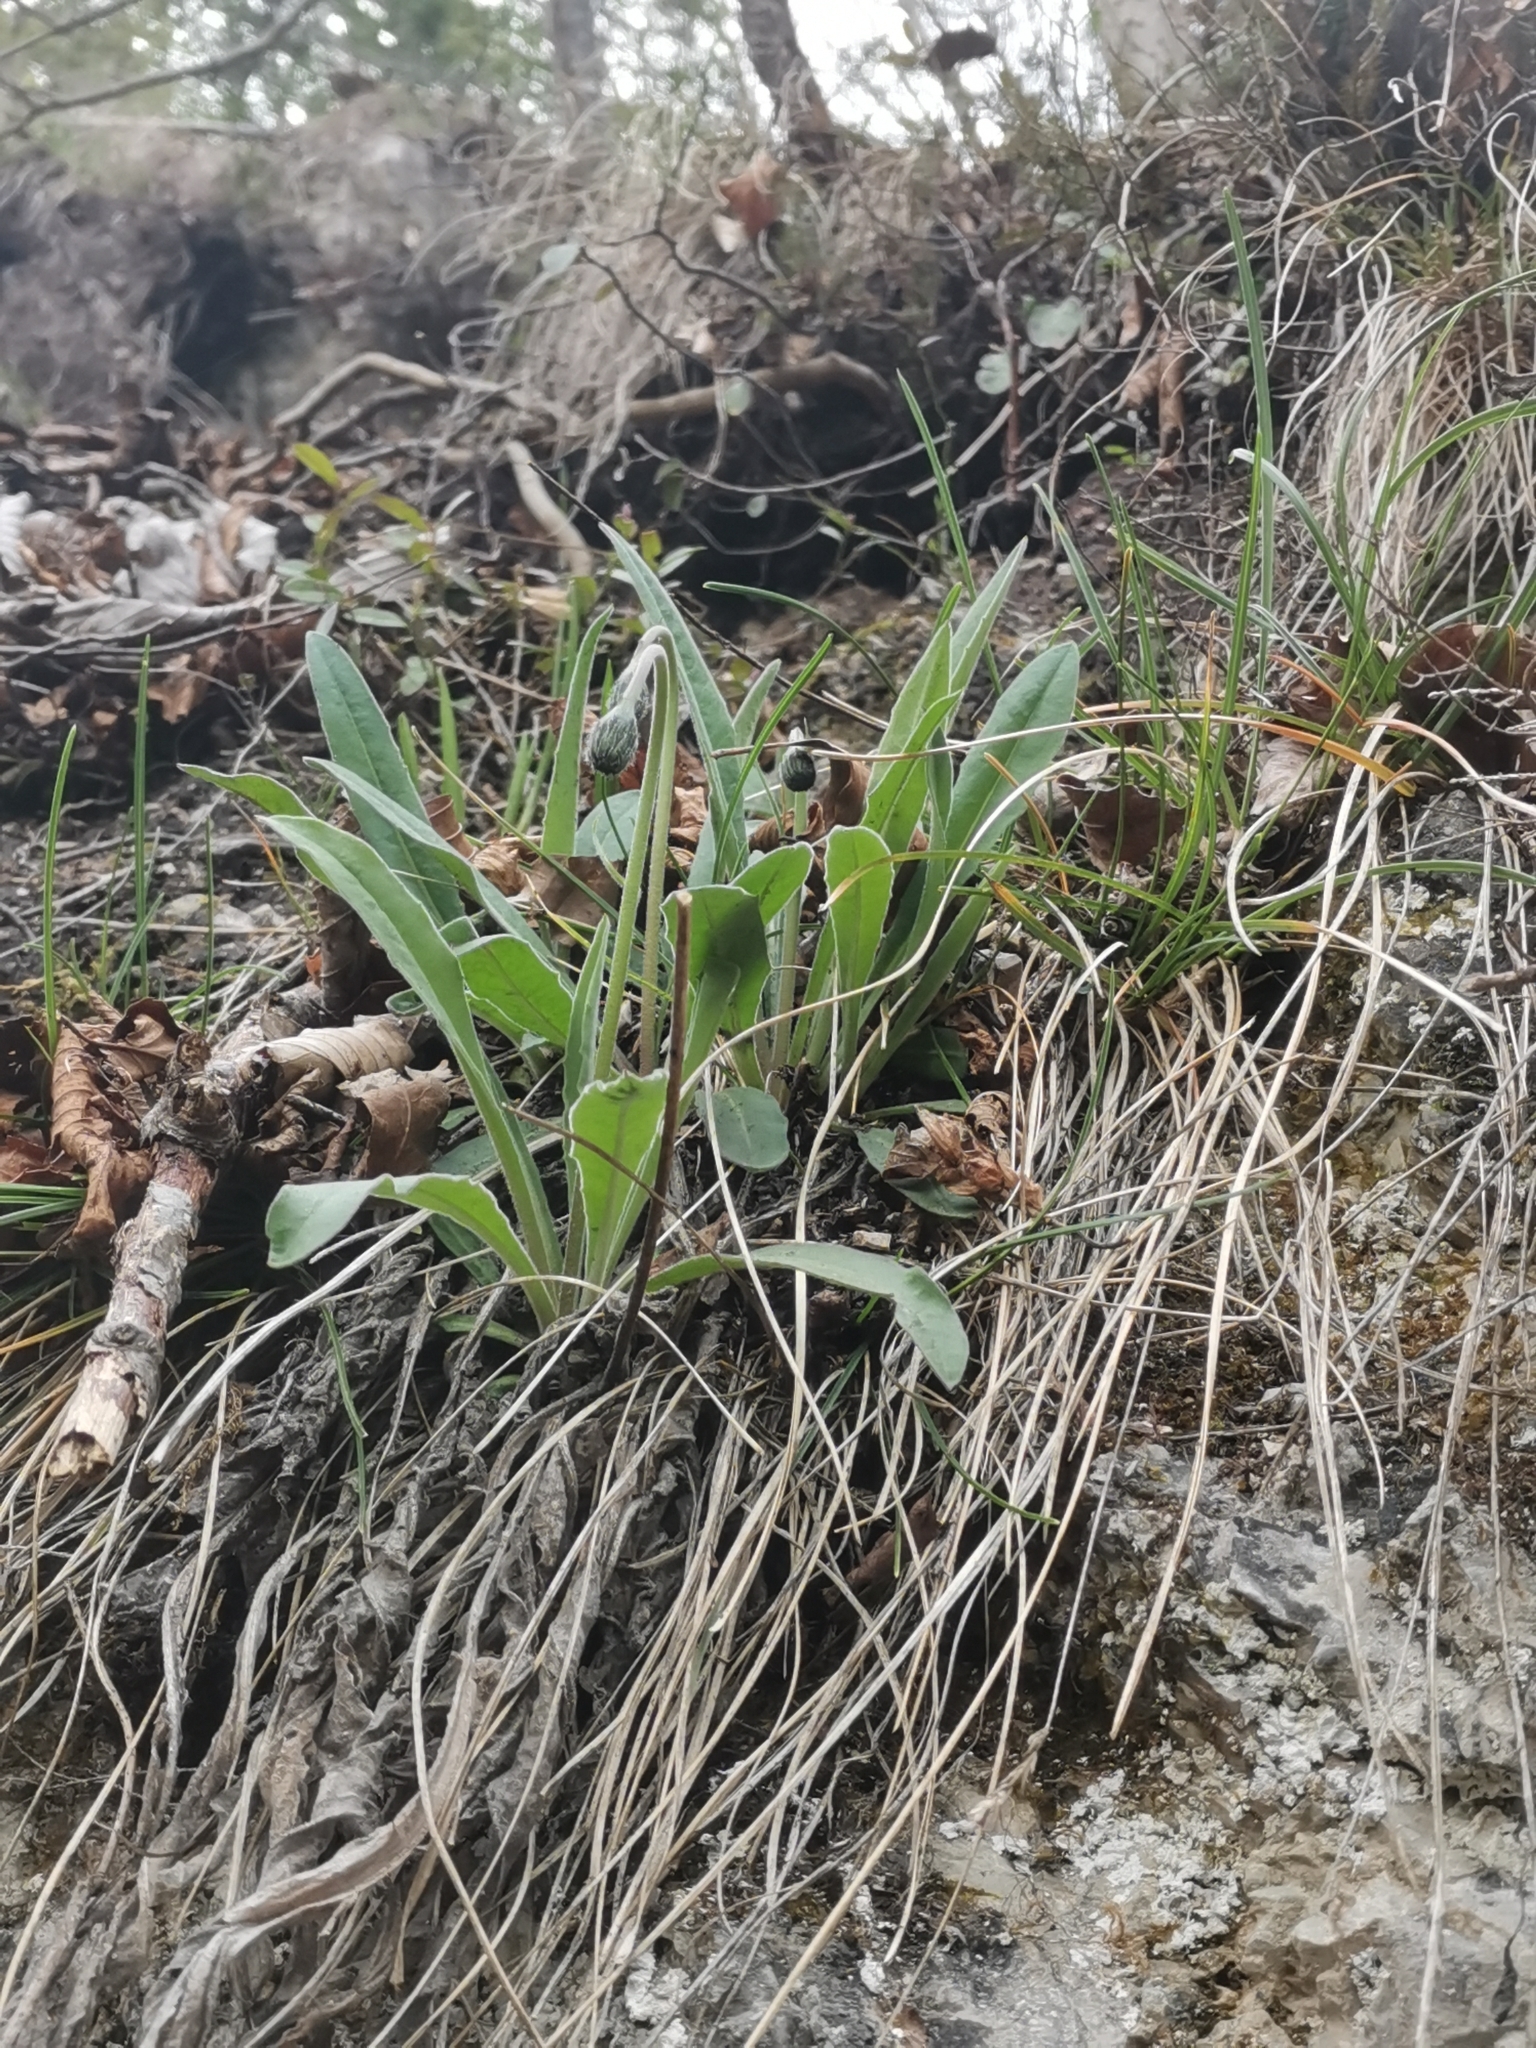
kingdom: Plantae
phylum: Tracheophyta
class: Magnoliopsida
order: Asterales
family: Asteraceae
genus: Leontodon
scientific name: Leontodon incanus
